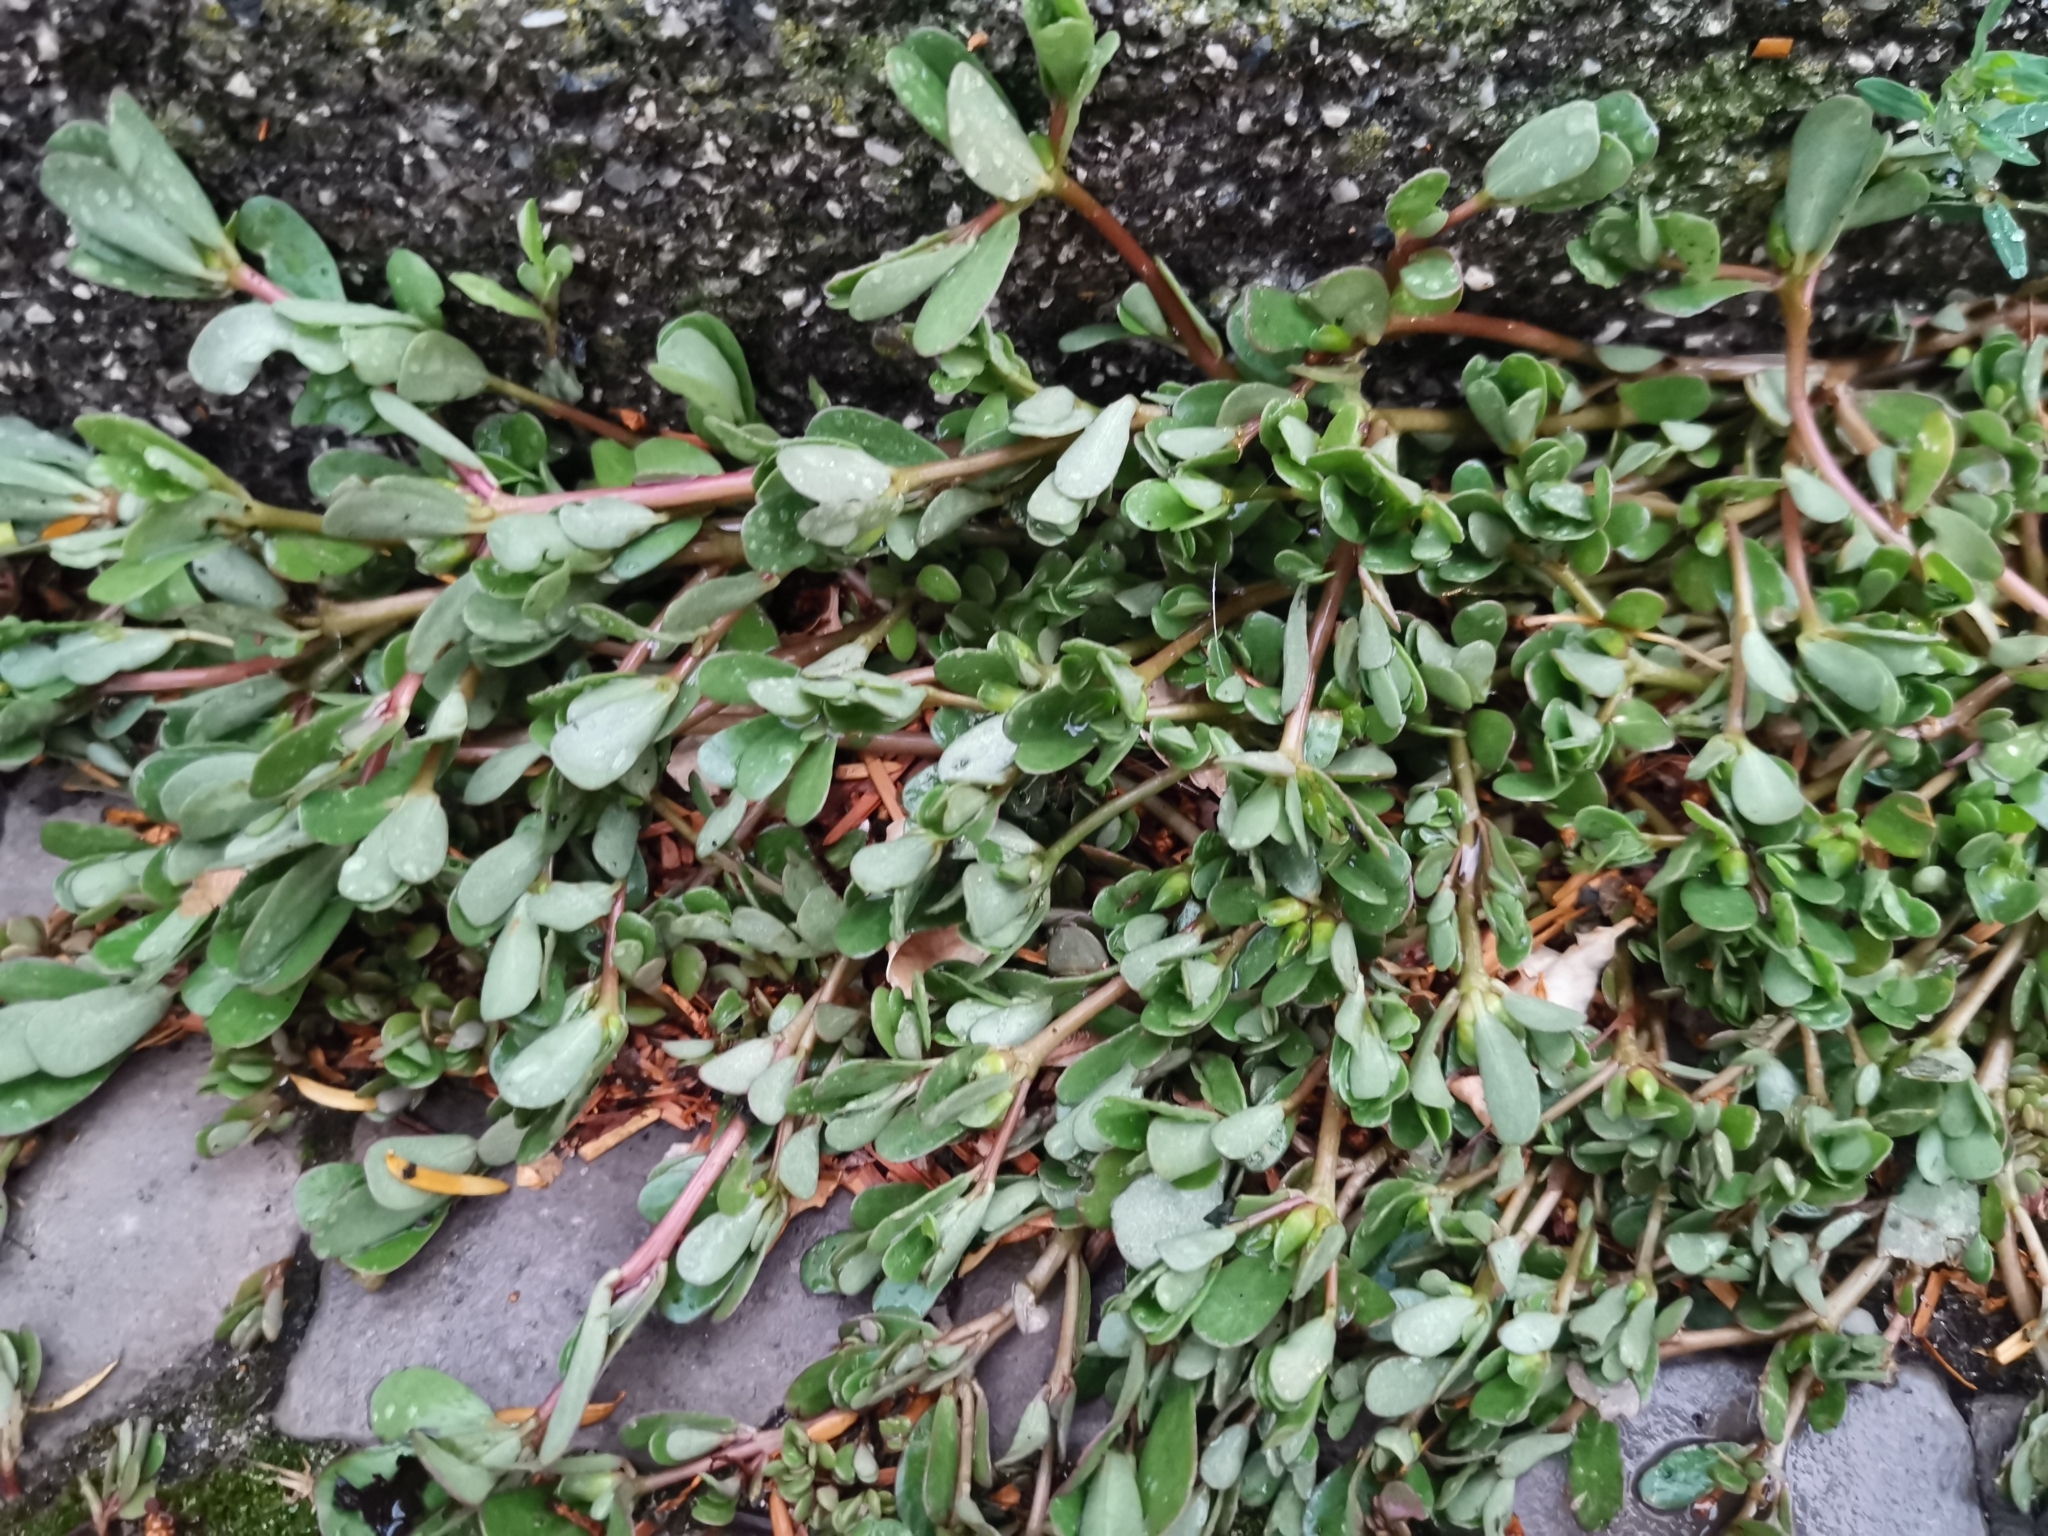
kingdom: Plantae
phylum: Tracheophyta
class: Magnoliopsida
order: Caryophyllales
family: Portulacaceae
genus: Portulaca
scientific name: Portulaca oleracea
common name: Common purslane
